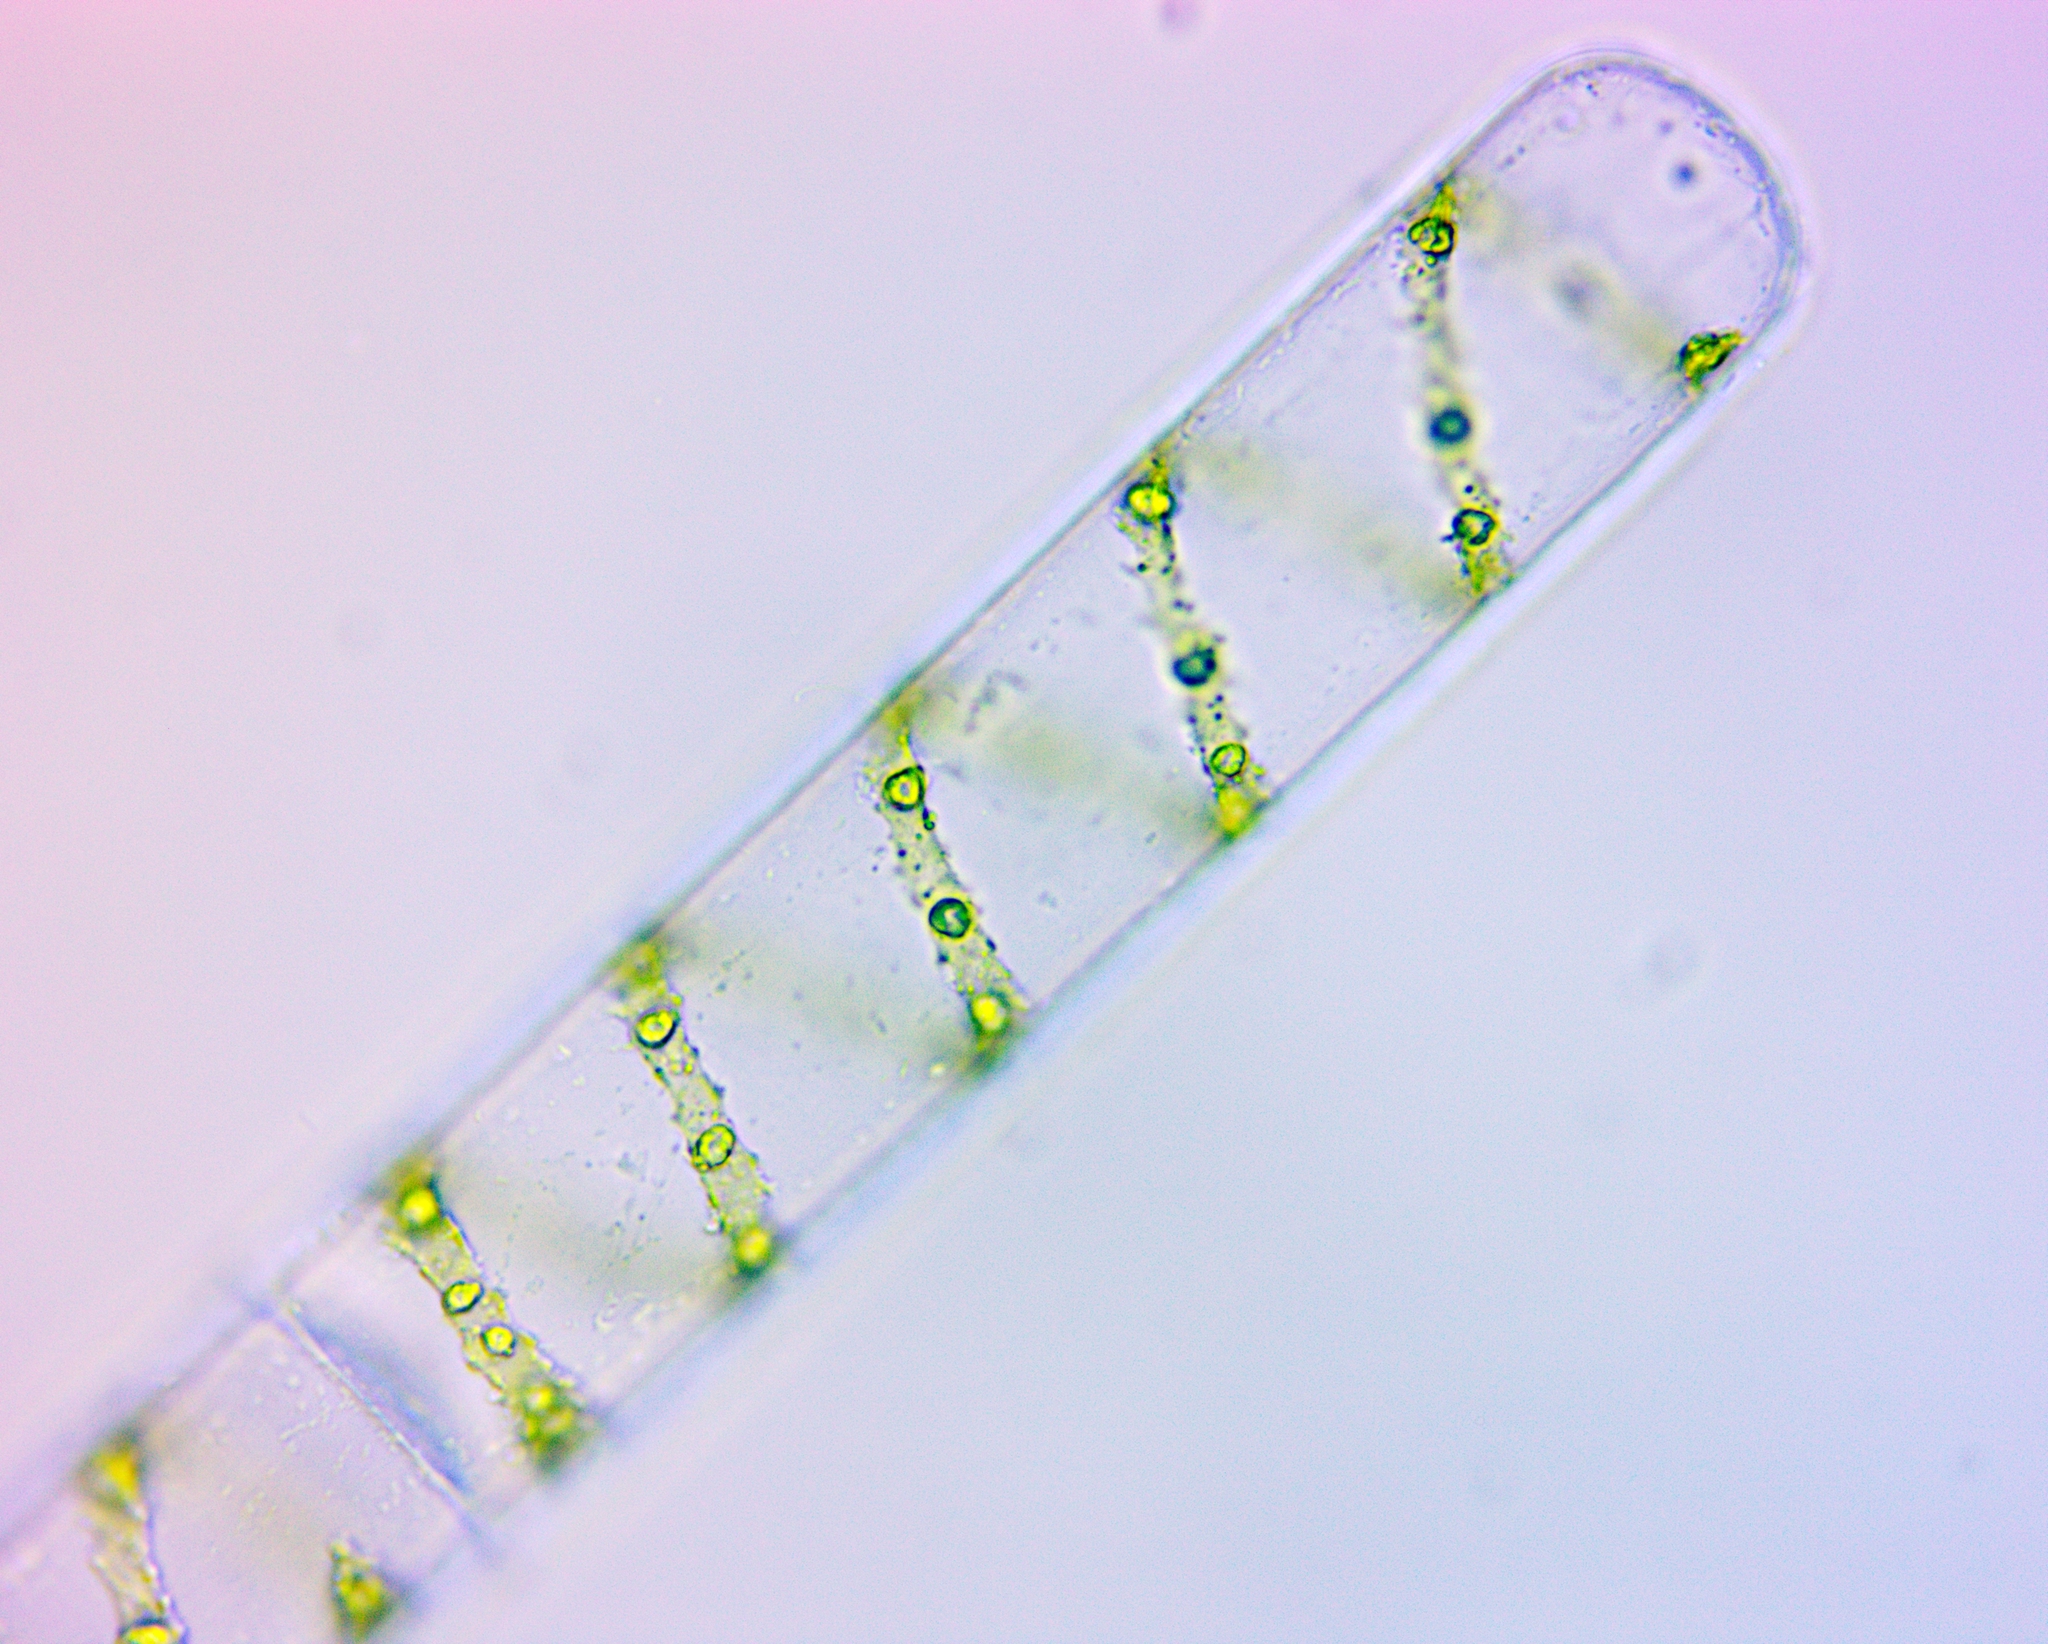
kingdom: Plantae
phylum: Charophyta
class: Zygnematophyceae
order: Zygnematales
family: Zygnemataceae
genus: Spirogyra
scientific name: Spirogyra
